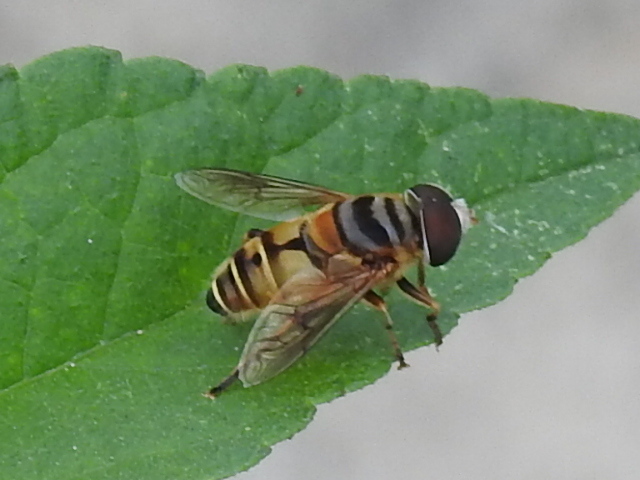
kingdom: Animalia
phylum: Arthropoda
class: Insecta
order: Diptera
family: Syrphidae
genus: Palpada
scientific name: Palpada vinetorum
